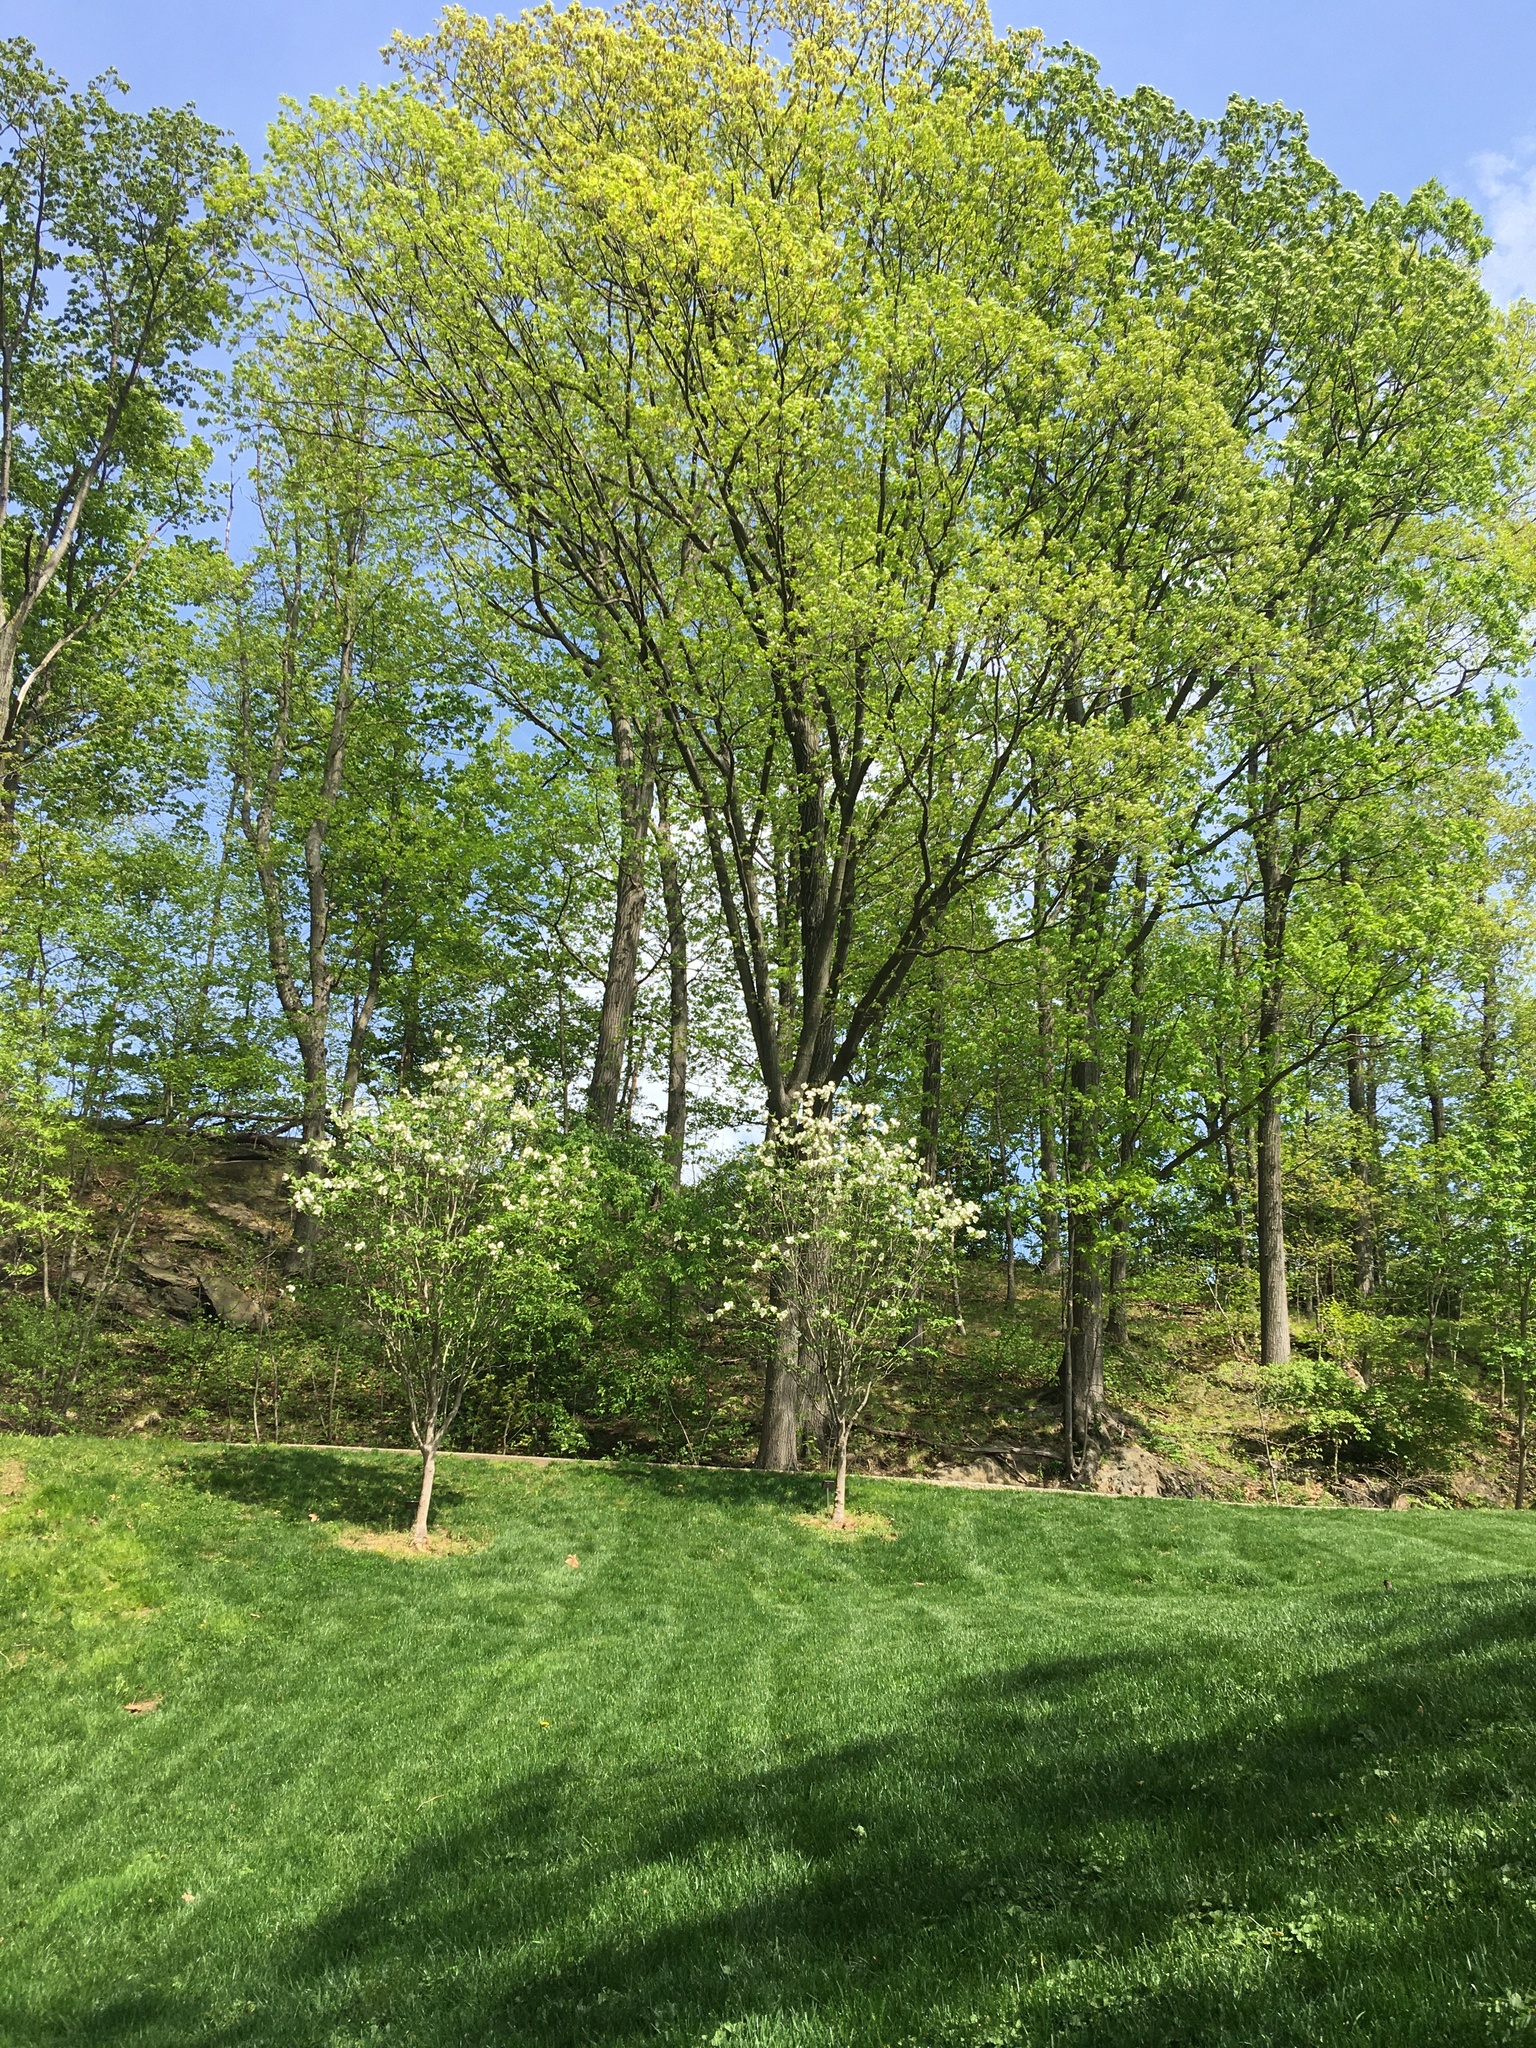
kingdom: Plantae
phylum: Tracheophyta
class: Magnoliopsida
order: Fagales
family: Fagaceae
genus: Quercus
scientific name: Quercus rubra
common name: Red oak
